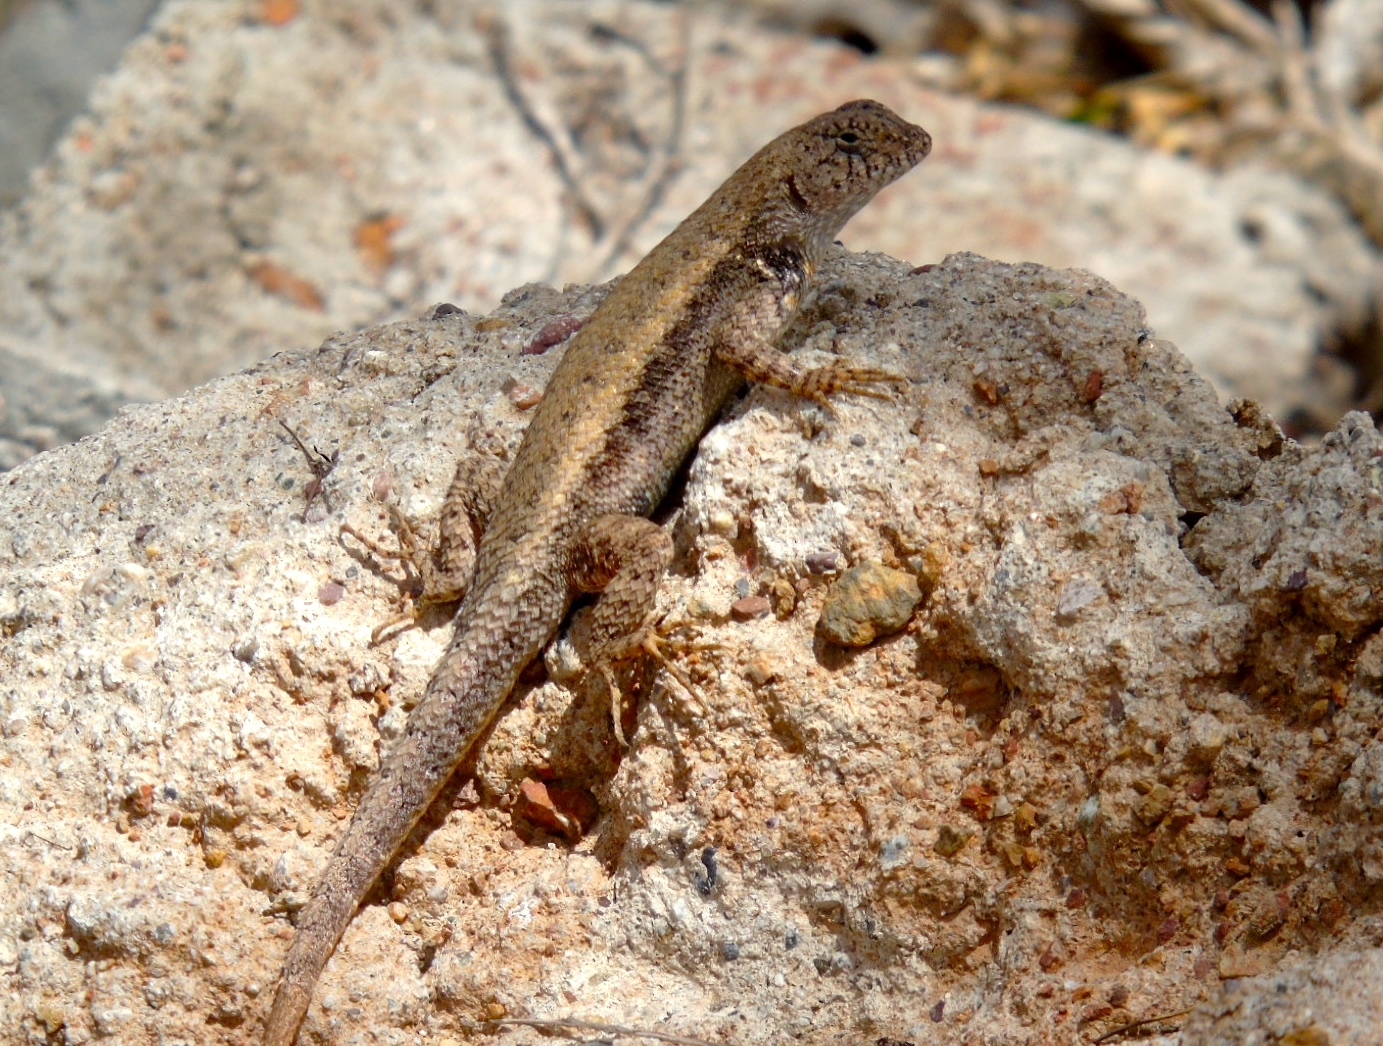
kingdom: Animalia
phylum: Chordata
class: Squamata
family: Phrynosomatidae
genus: Sceloporus
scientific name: Sceloporus nelsoni
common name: Nelson's spiny lizard
